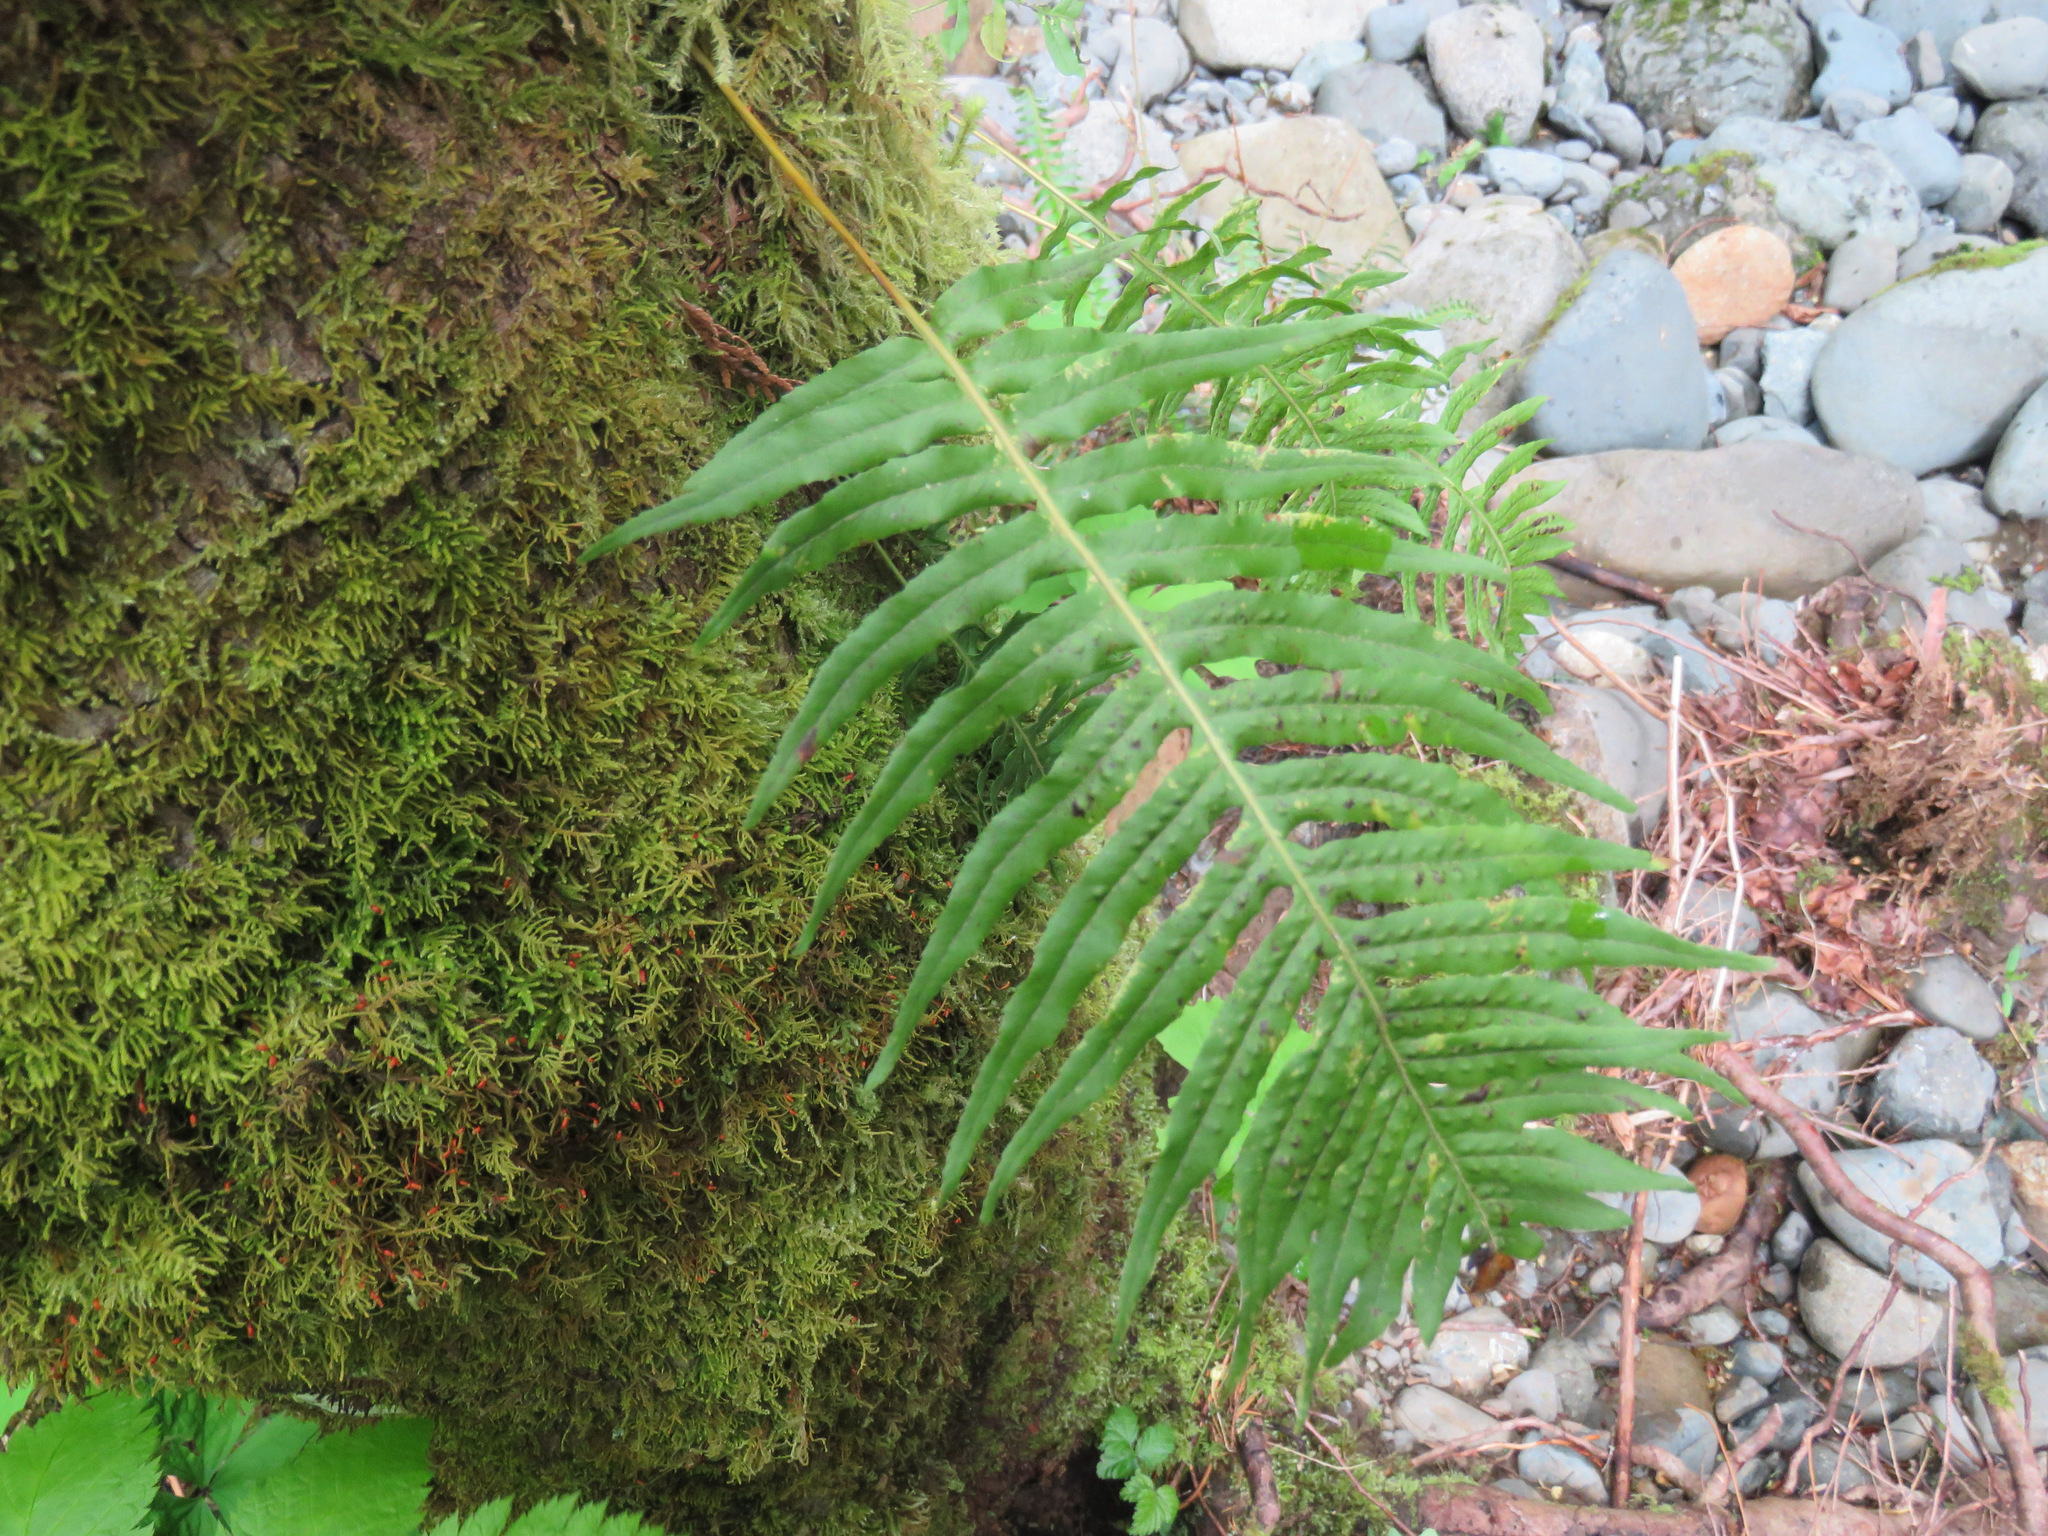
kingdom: Plantae
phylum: Tracheophyta
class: Polypodiopsida
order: Polypodiales
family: Polypodiaceae
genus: Polypodium
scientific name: Polypodium glycyrrhiza
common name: Licorice fern
